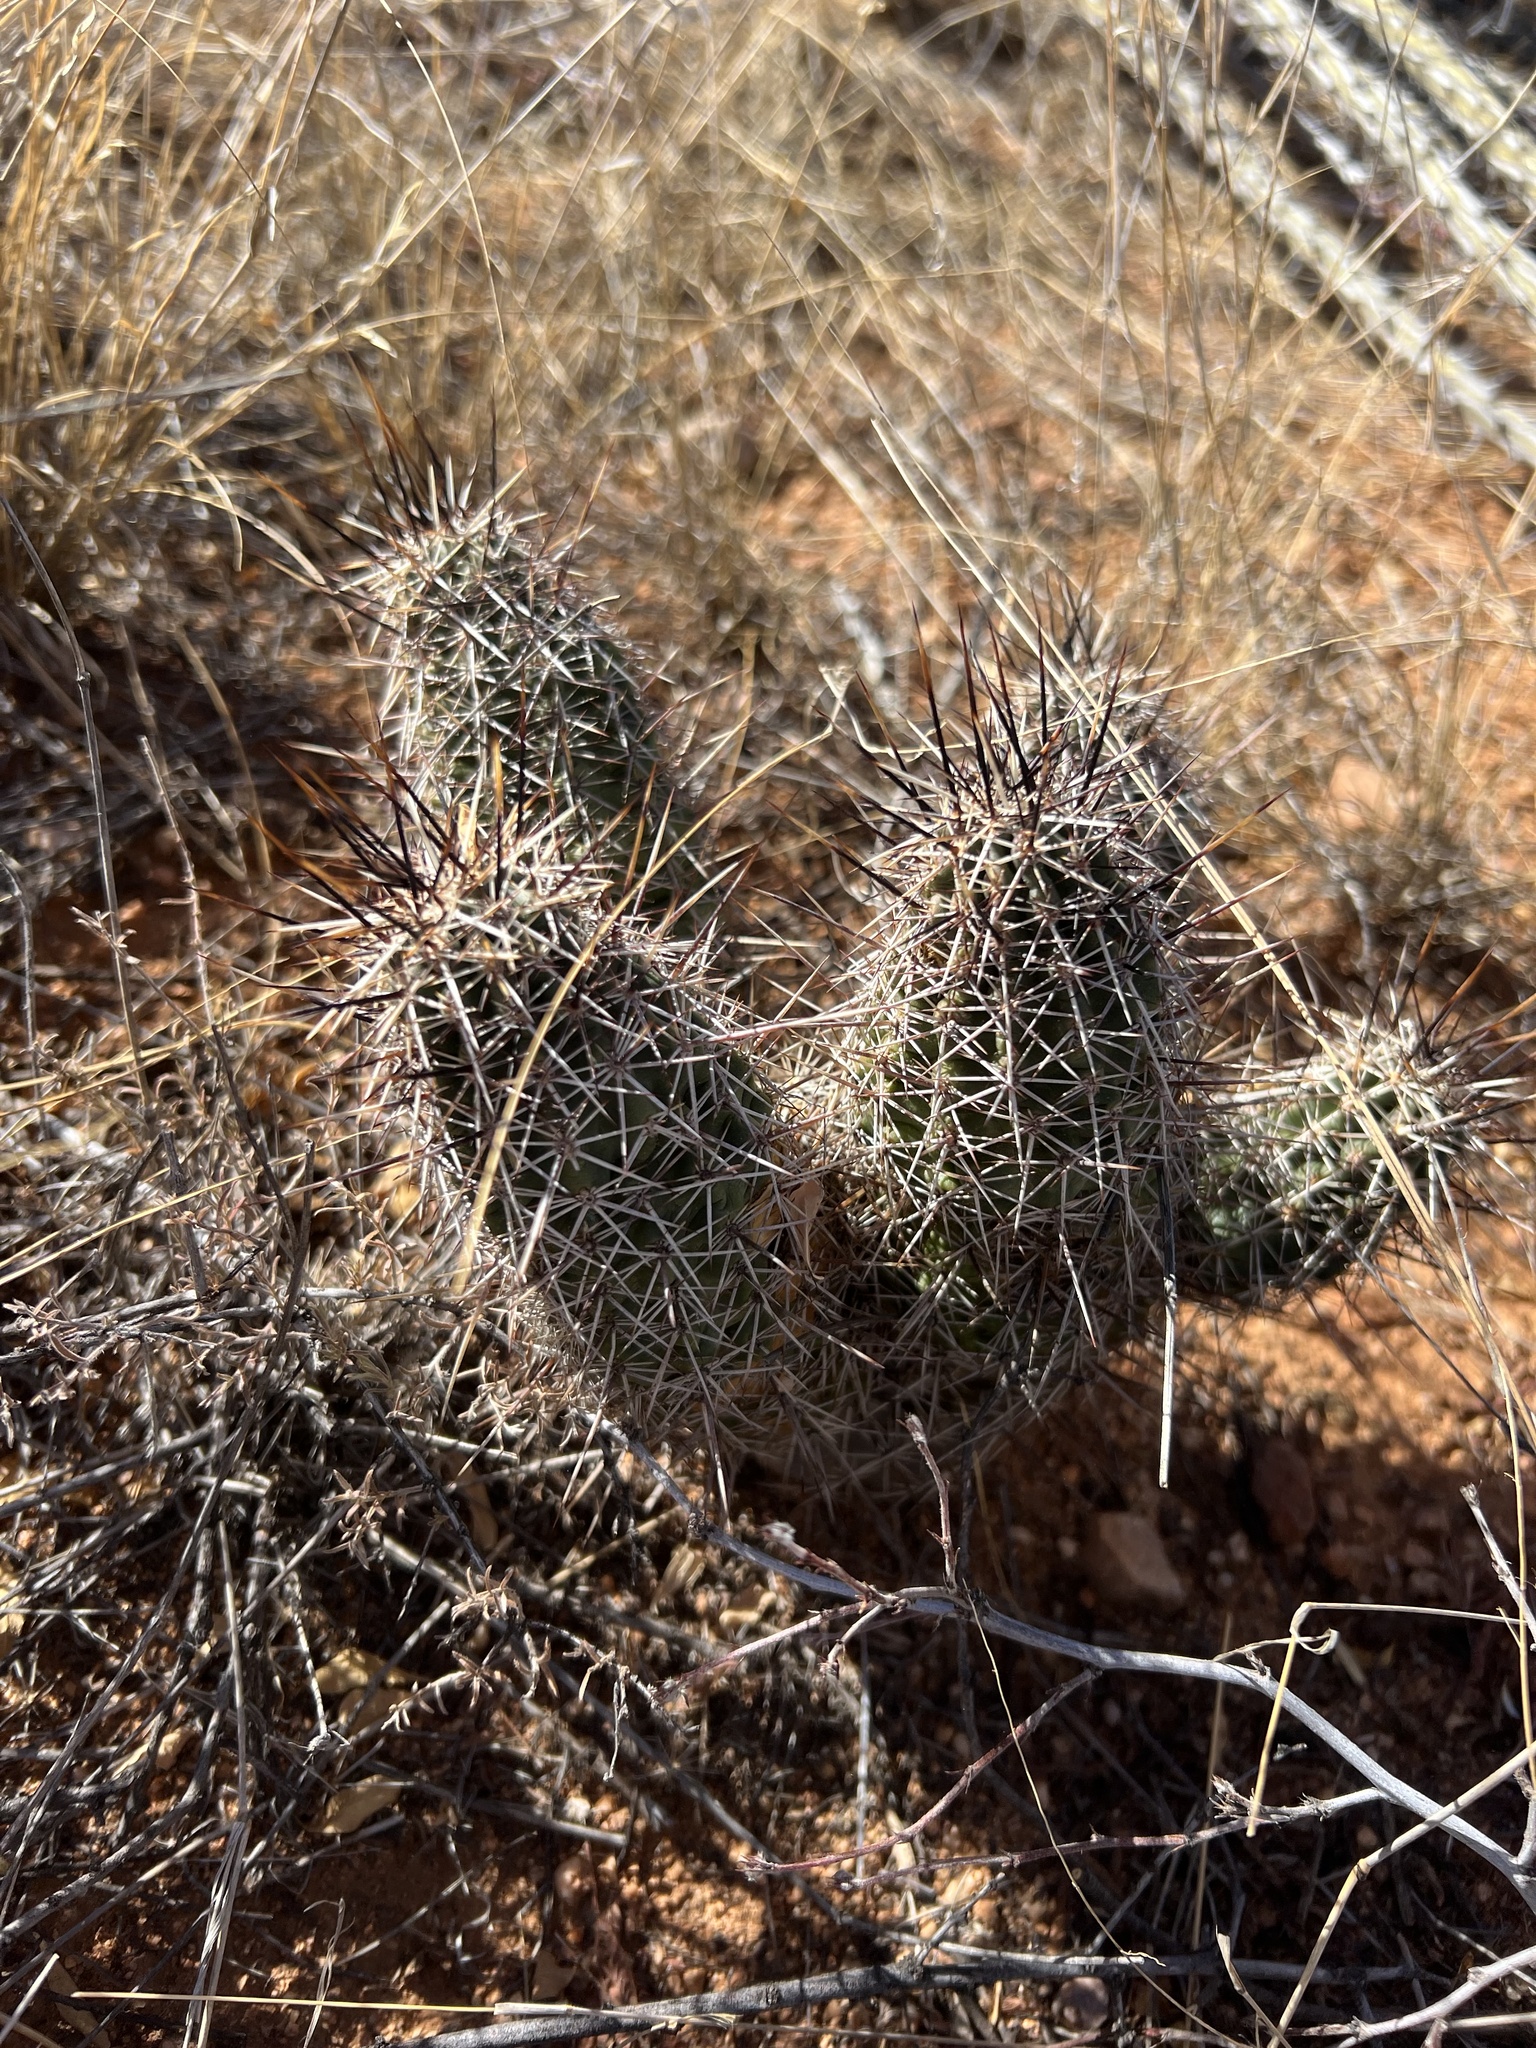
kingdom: Plantae
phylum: Tracheophyta
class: Magnoliopsida
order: Caryophyllales
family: Cactaceae
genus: Echinocereus
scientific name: Echinocereus fasciculatus
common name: Bundle hedgehog
